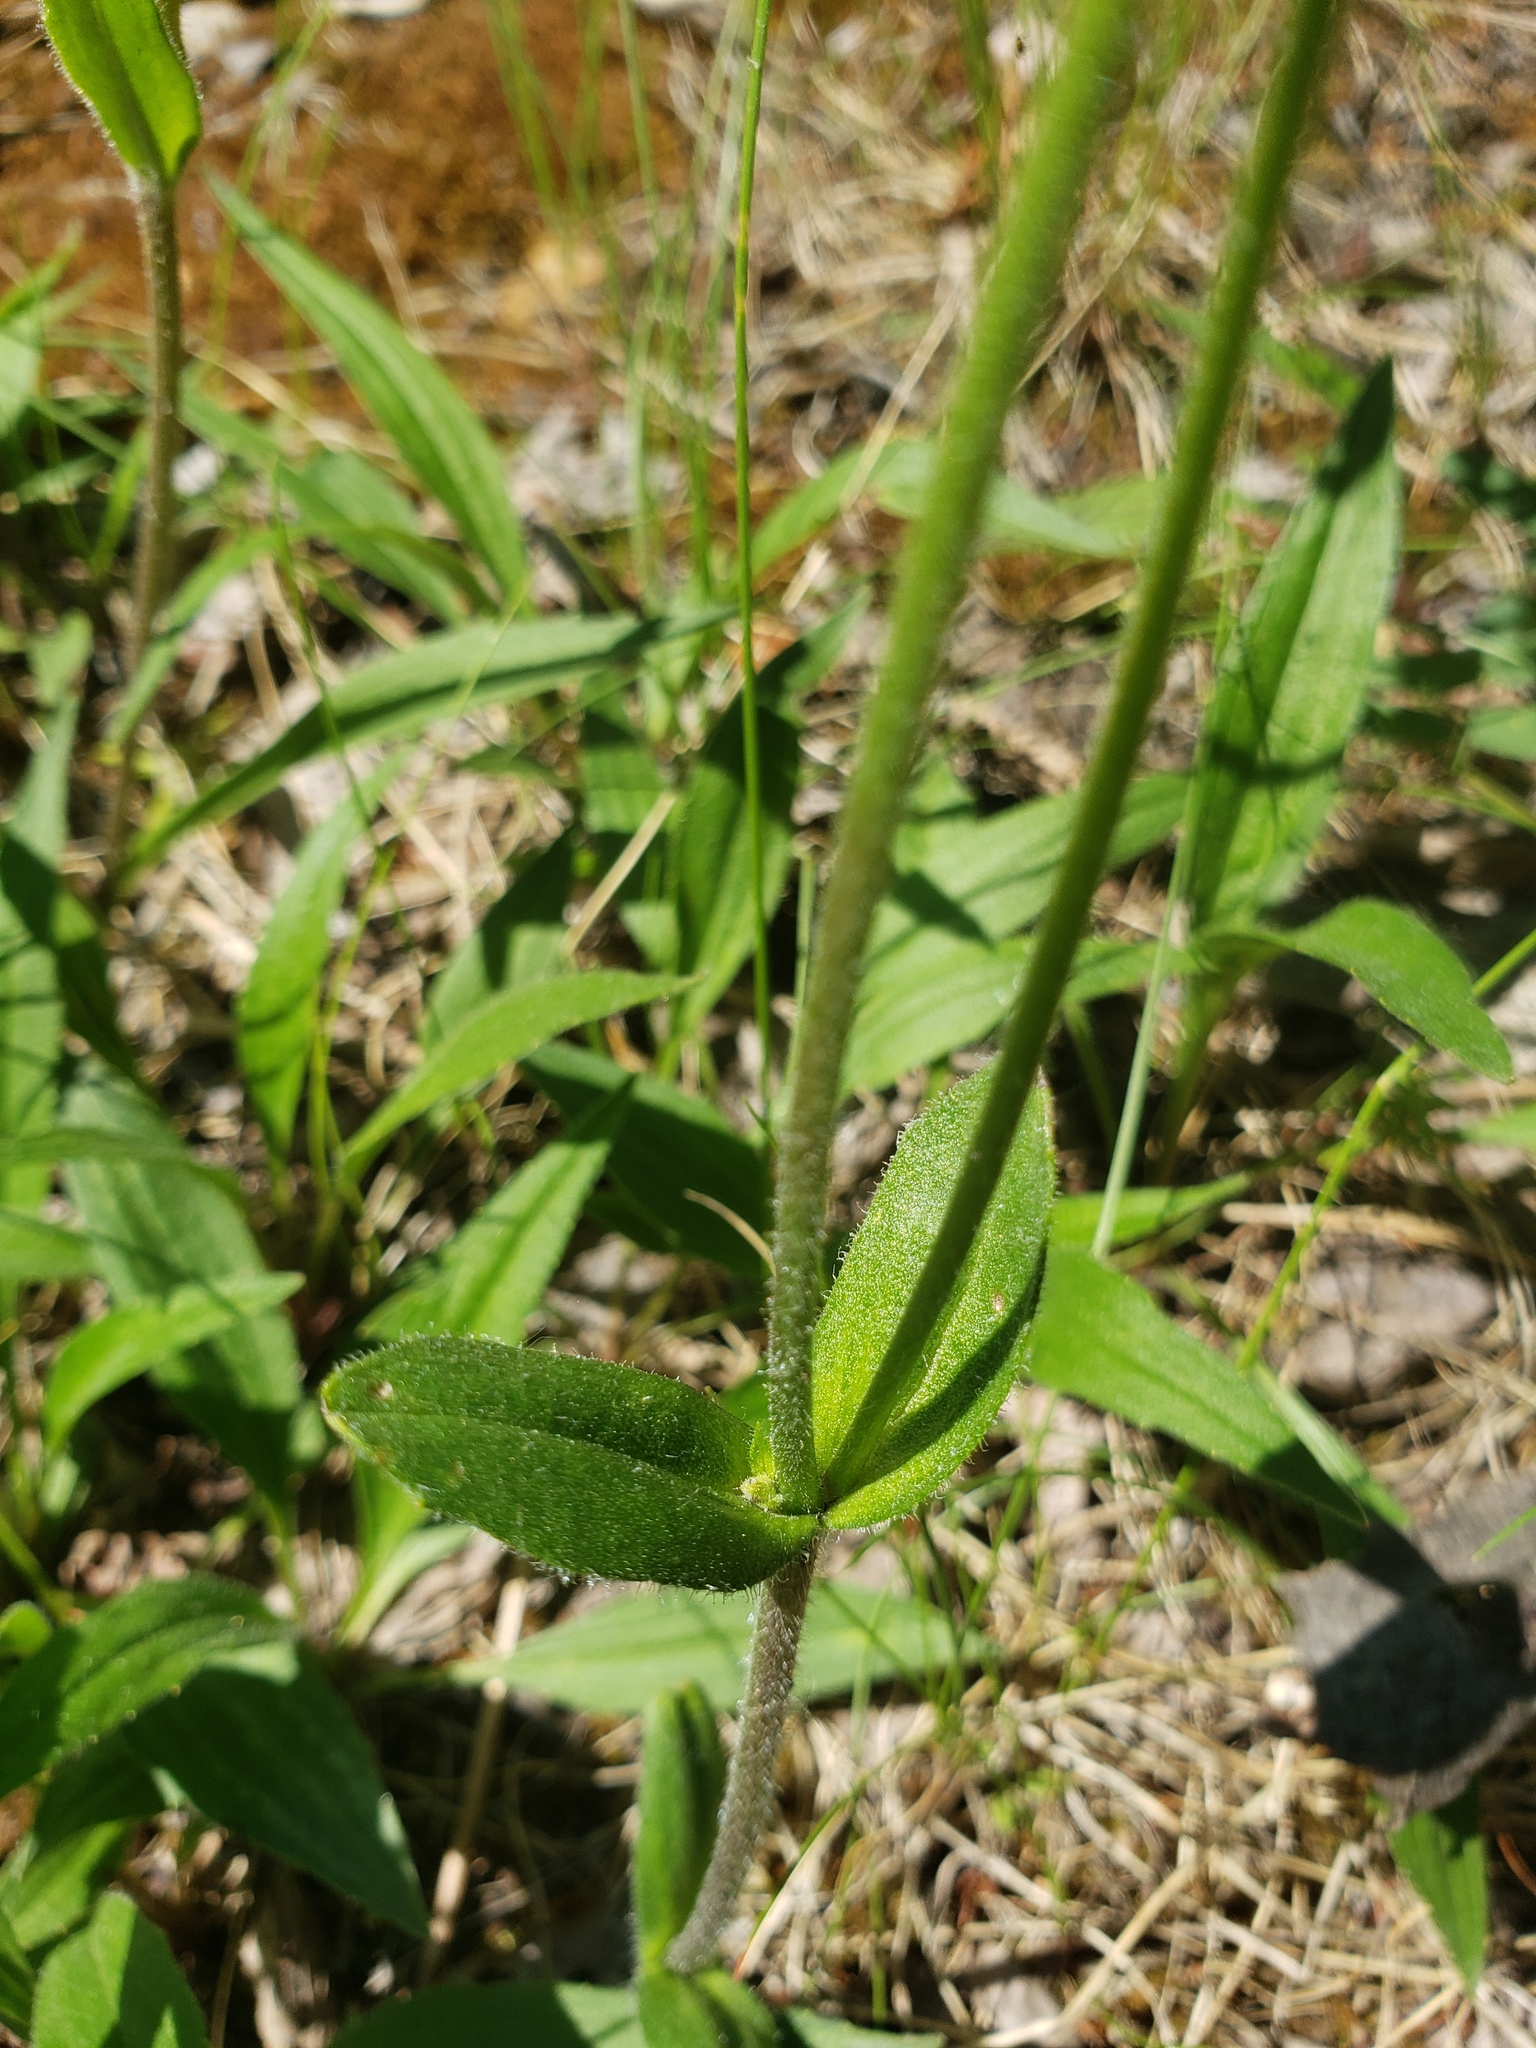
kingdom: Plantae
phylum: Tracheophyta
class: Magnoliopsida
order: Asterales
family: Asteraceae
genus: Arnica
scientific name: Arnica lonchophylla
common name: Northern arnica
